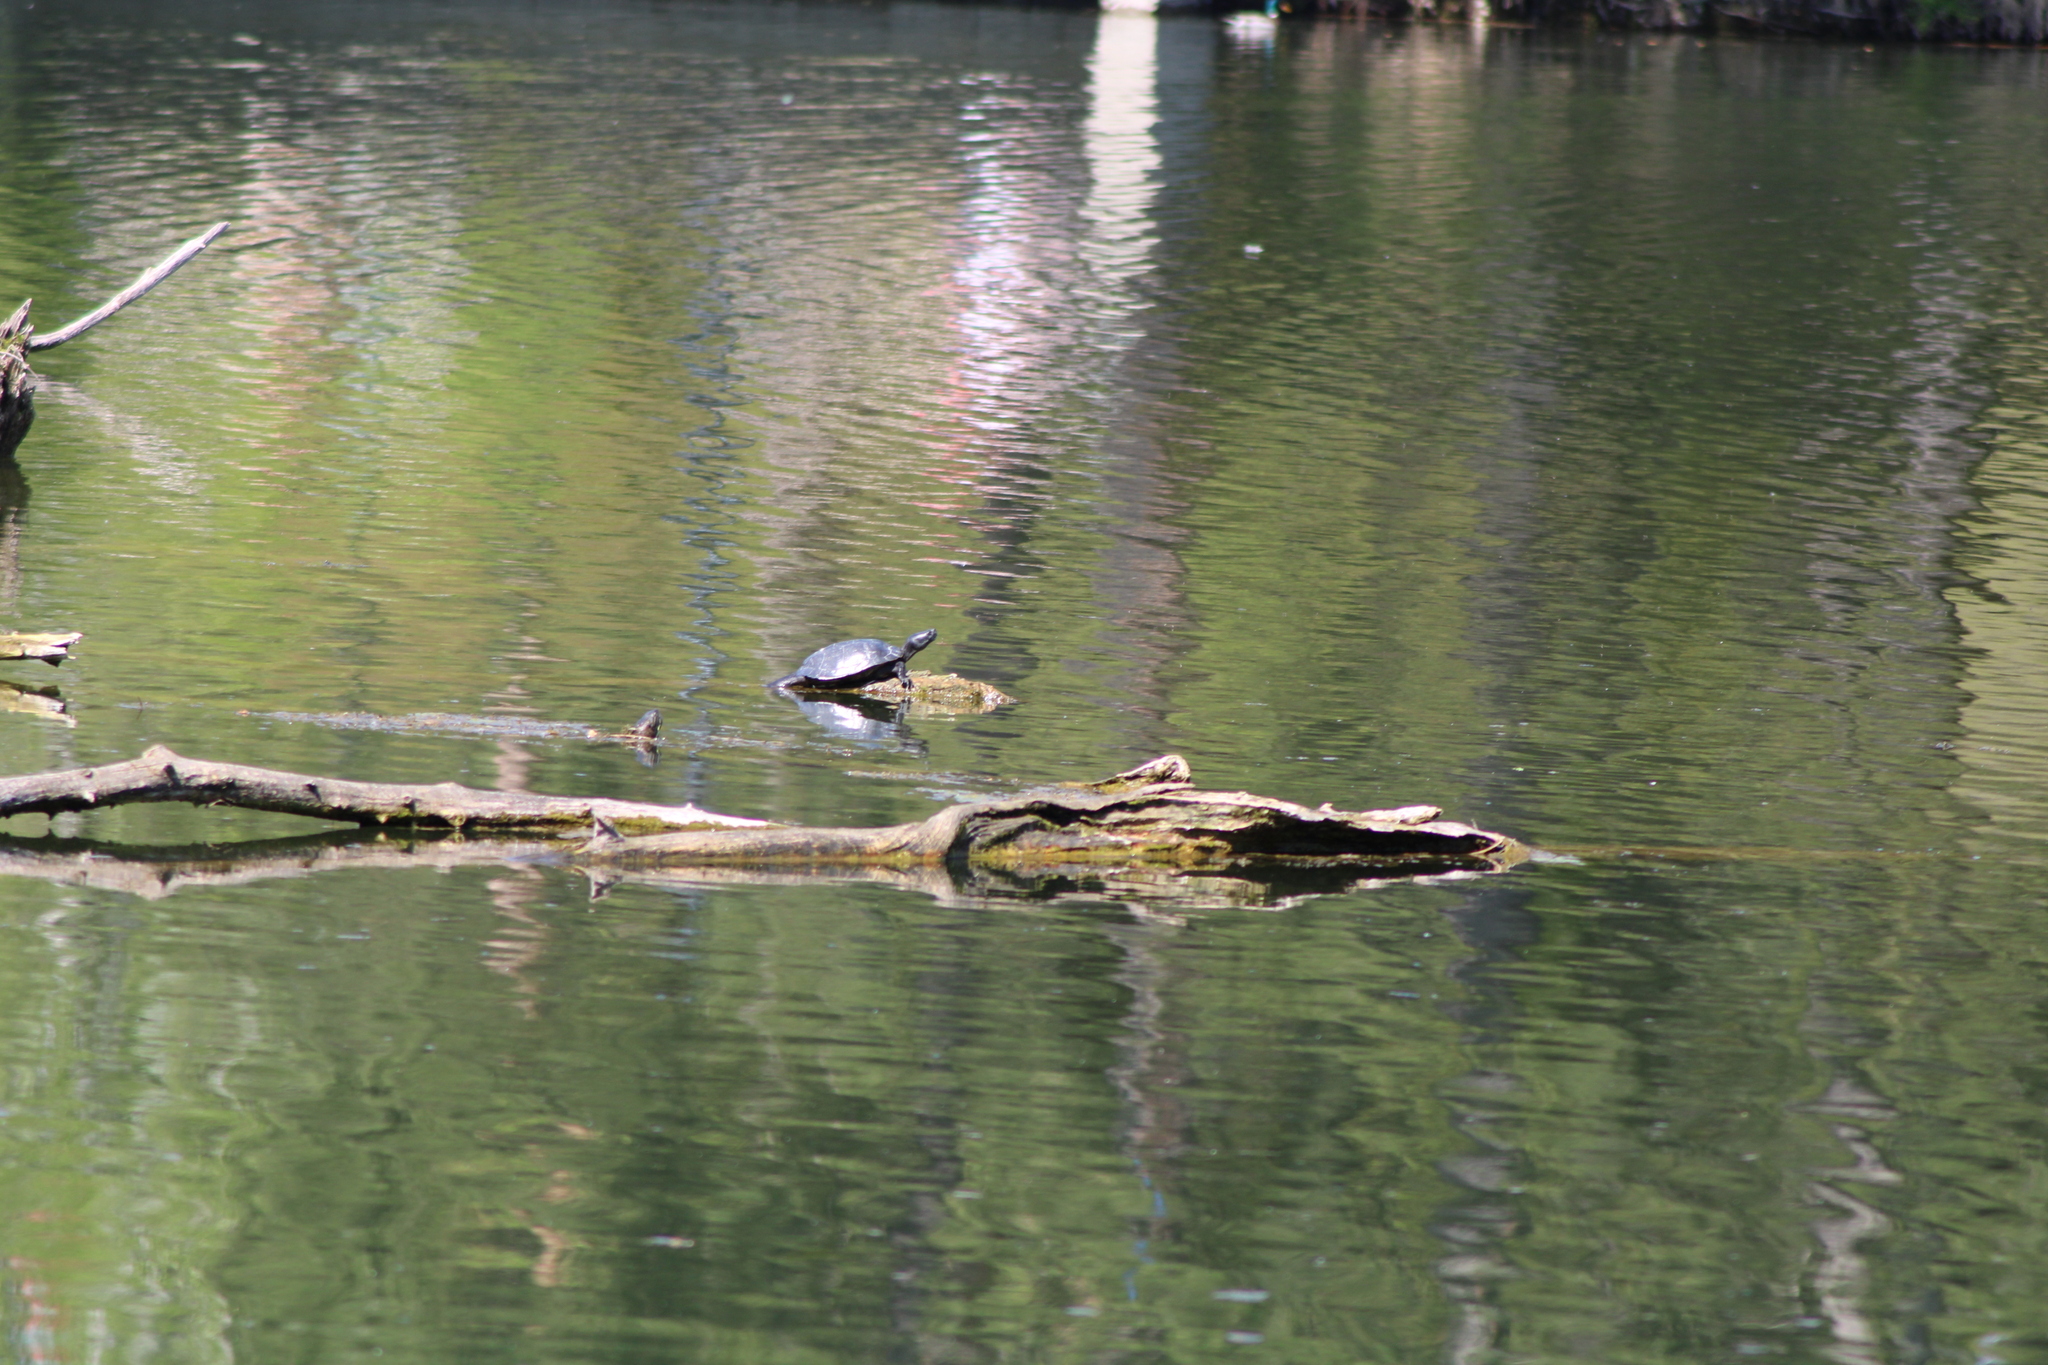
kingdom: Animalia
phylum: Chordata
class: Testudines
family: Emydidae
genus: Trachemys
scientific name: Trachemys scripta
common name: Slider
